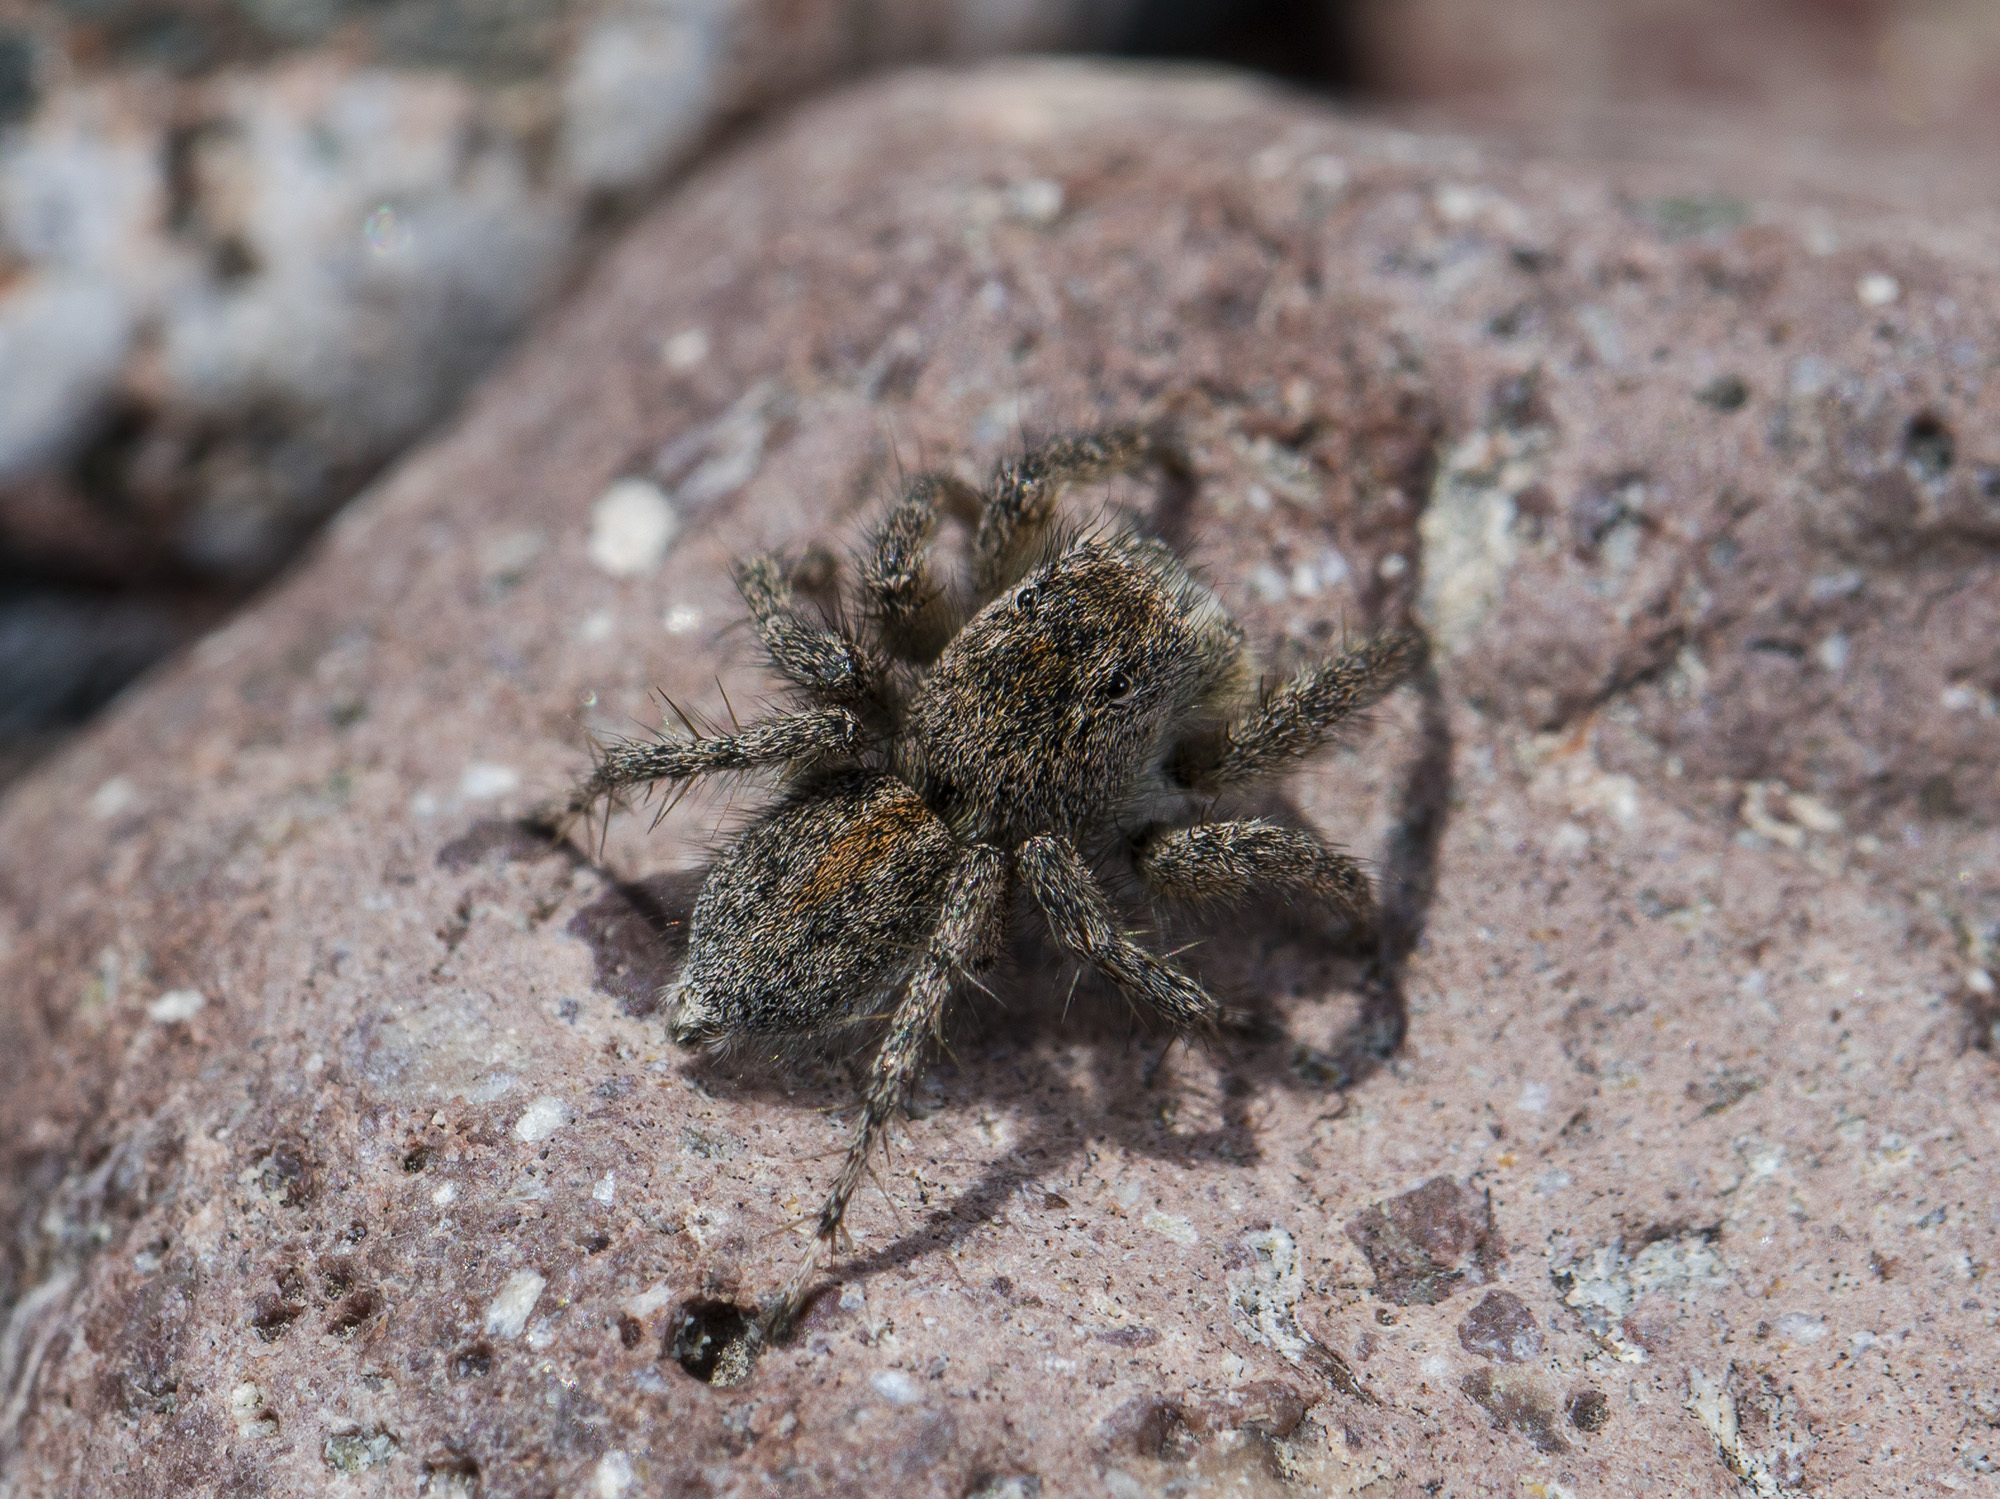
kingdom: Animalia
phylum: Arthropoda
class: Arachnida
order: Araneae
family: Salticidae
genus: Aelurillus
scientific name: Aelurillus dubatolovi
